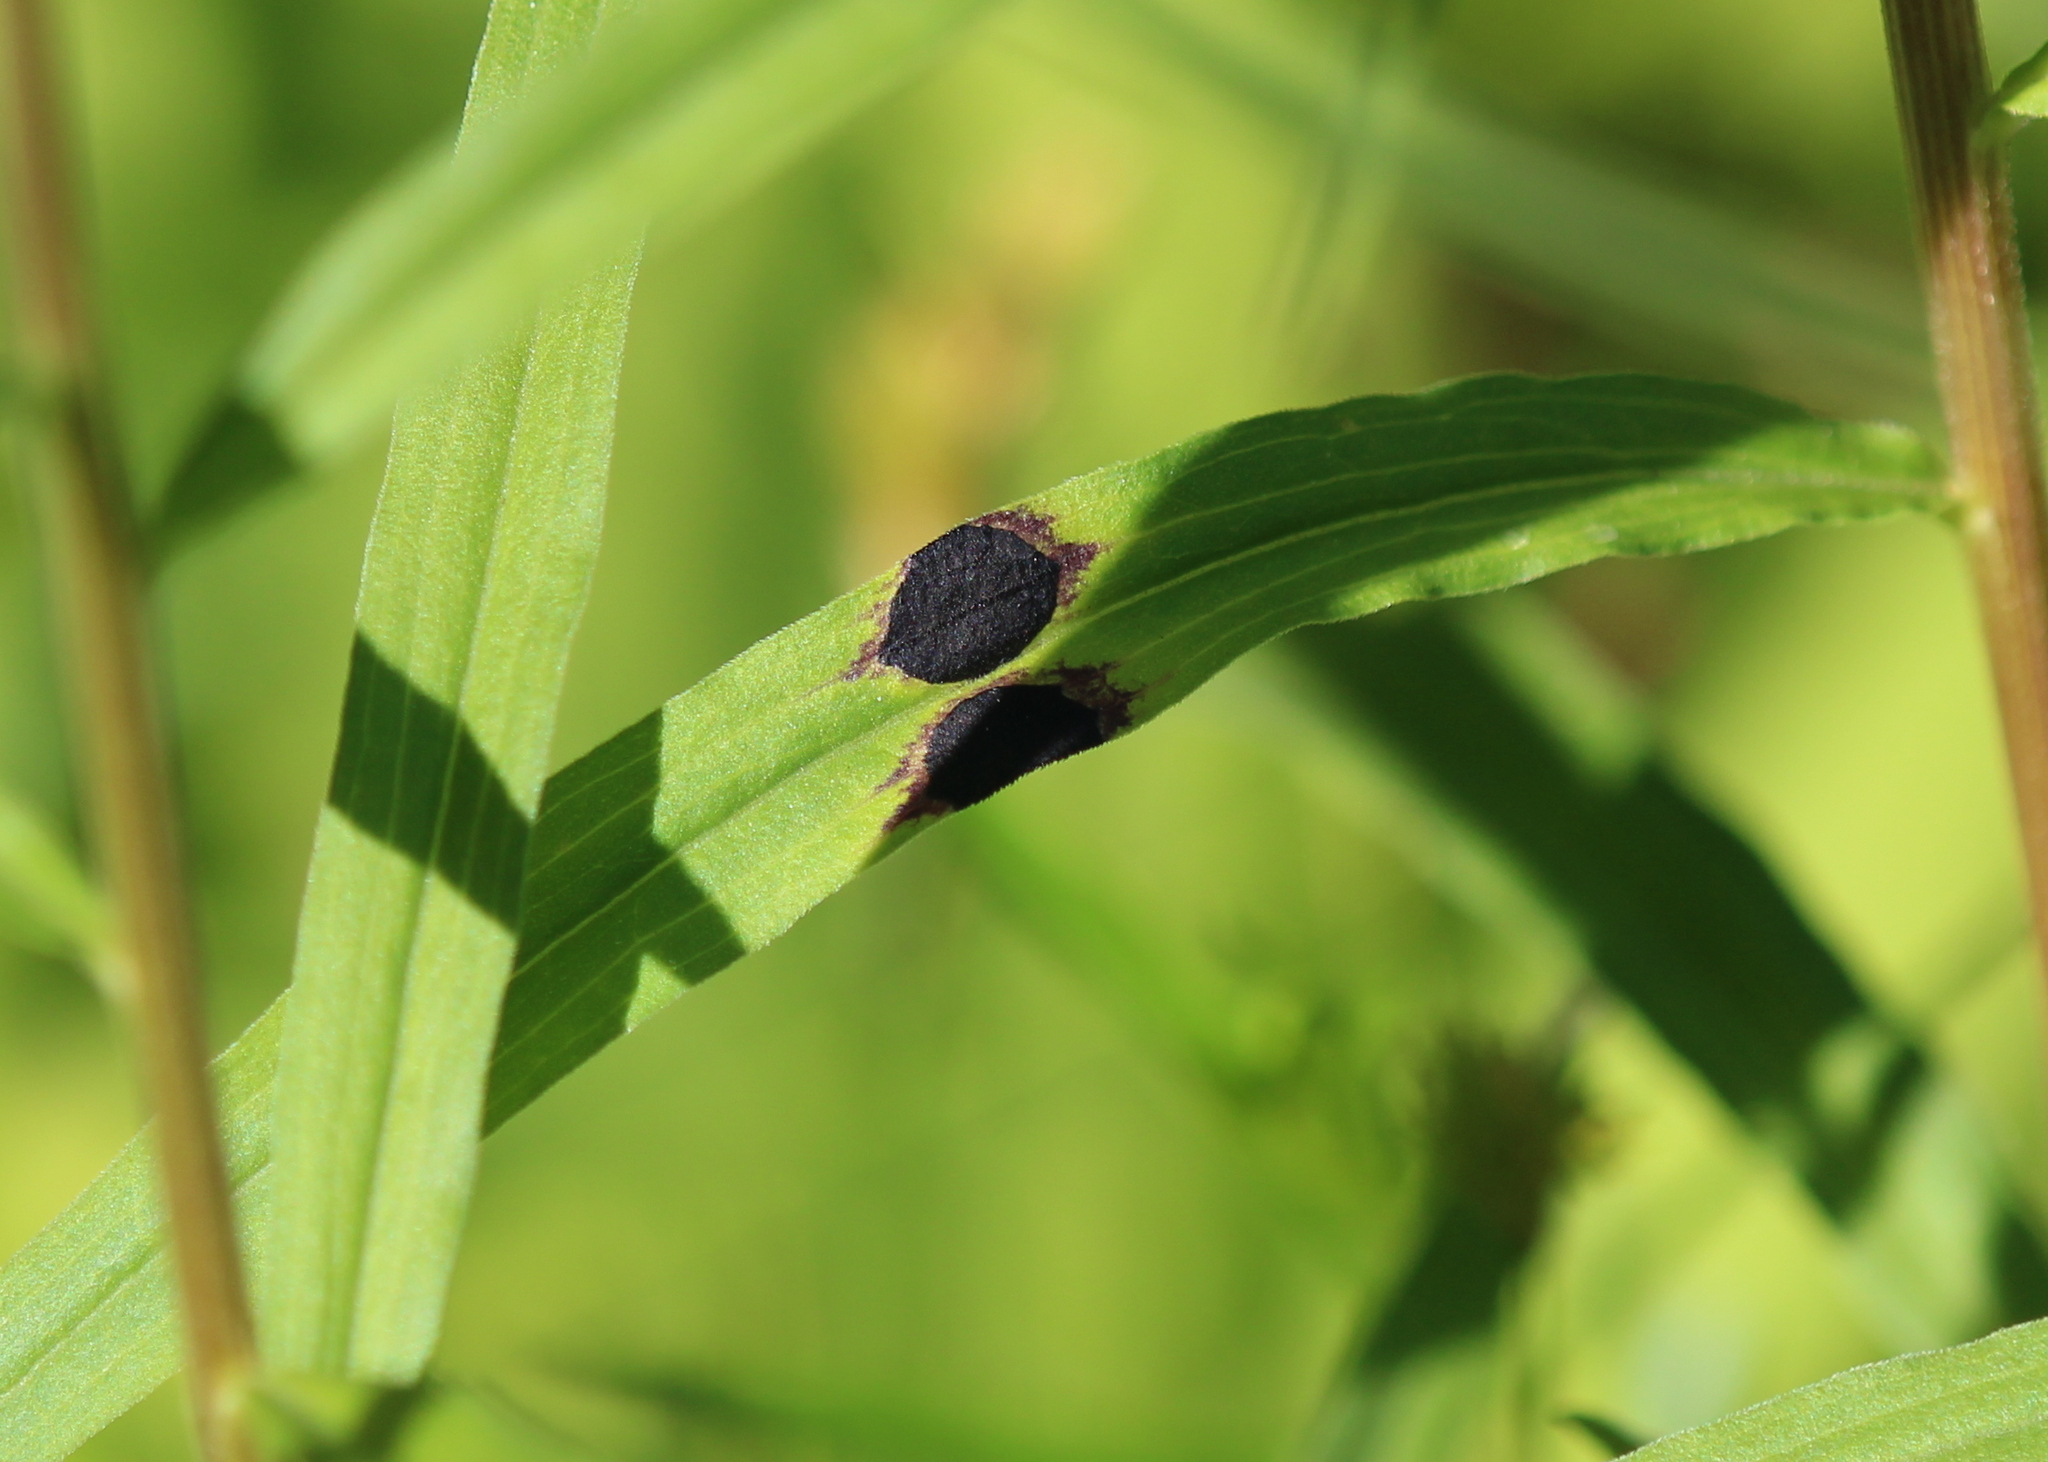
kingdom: Animalia
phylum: Arthropoda
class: Insecta
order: Diptera
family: Cecidomyiidae
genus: Asteromyia
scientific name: Asteromyia euthamiae
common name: Euthamia leaf gall midge
